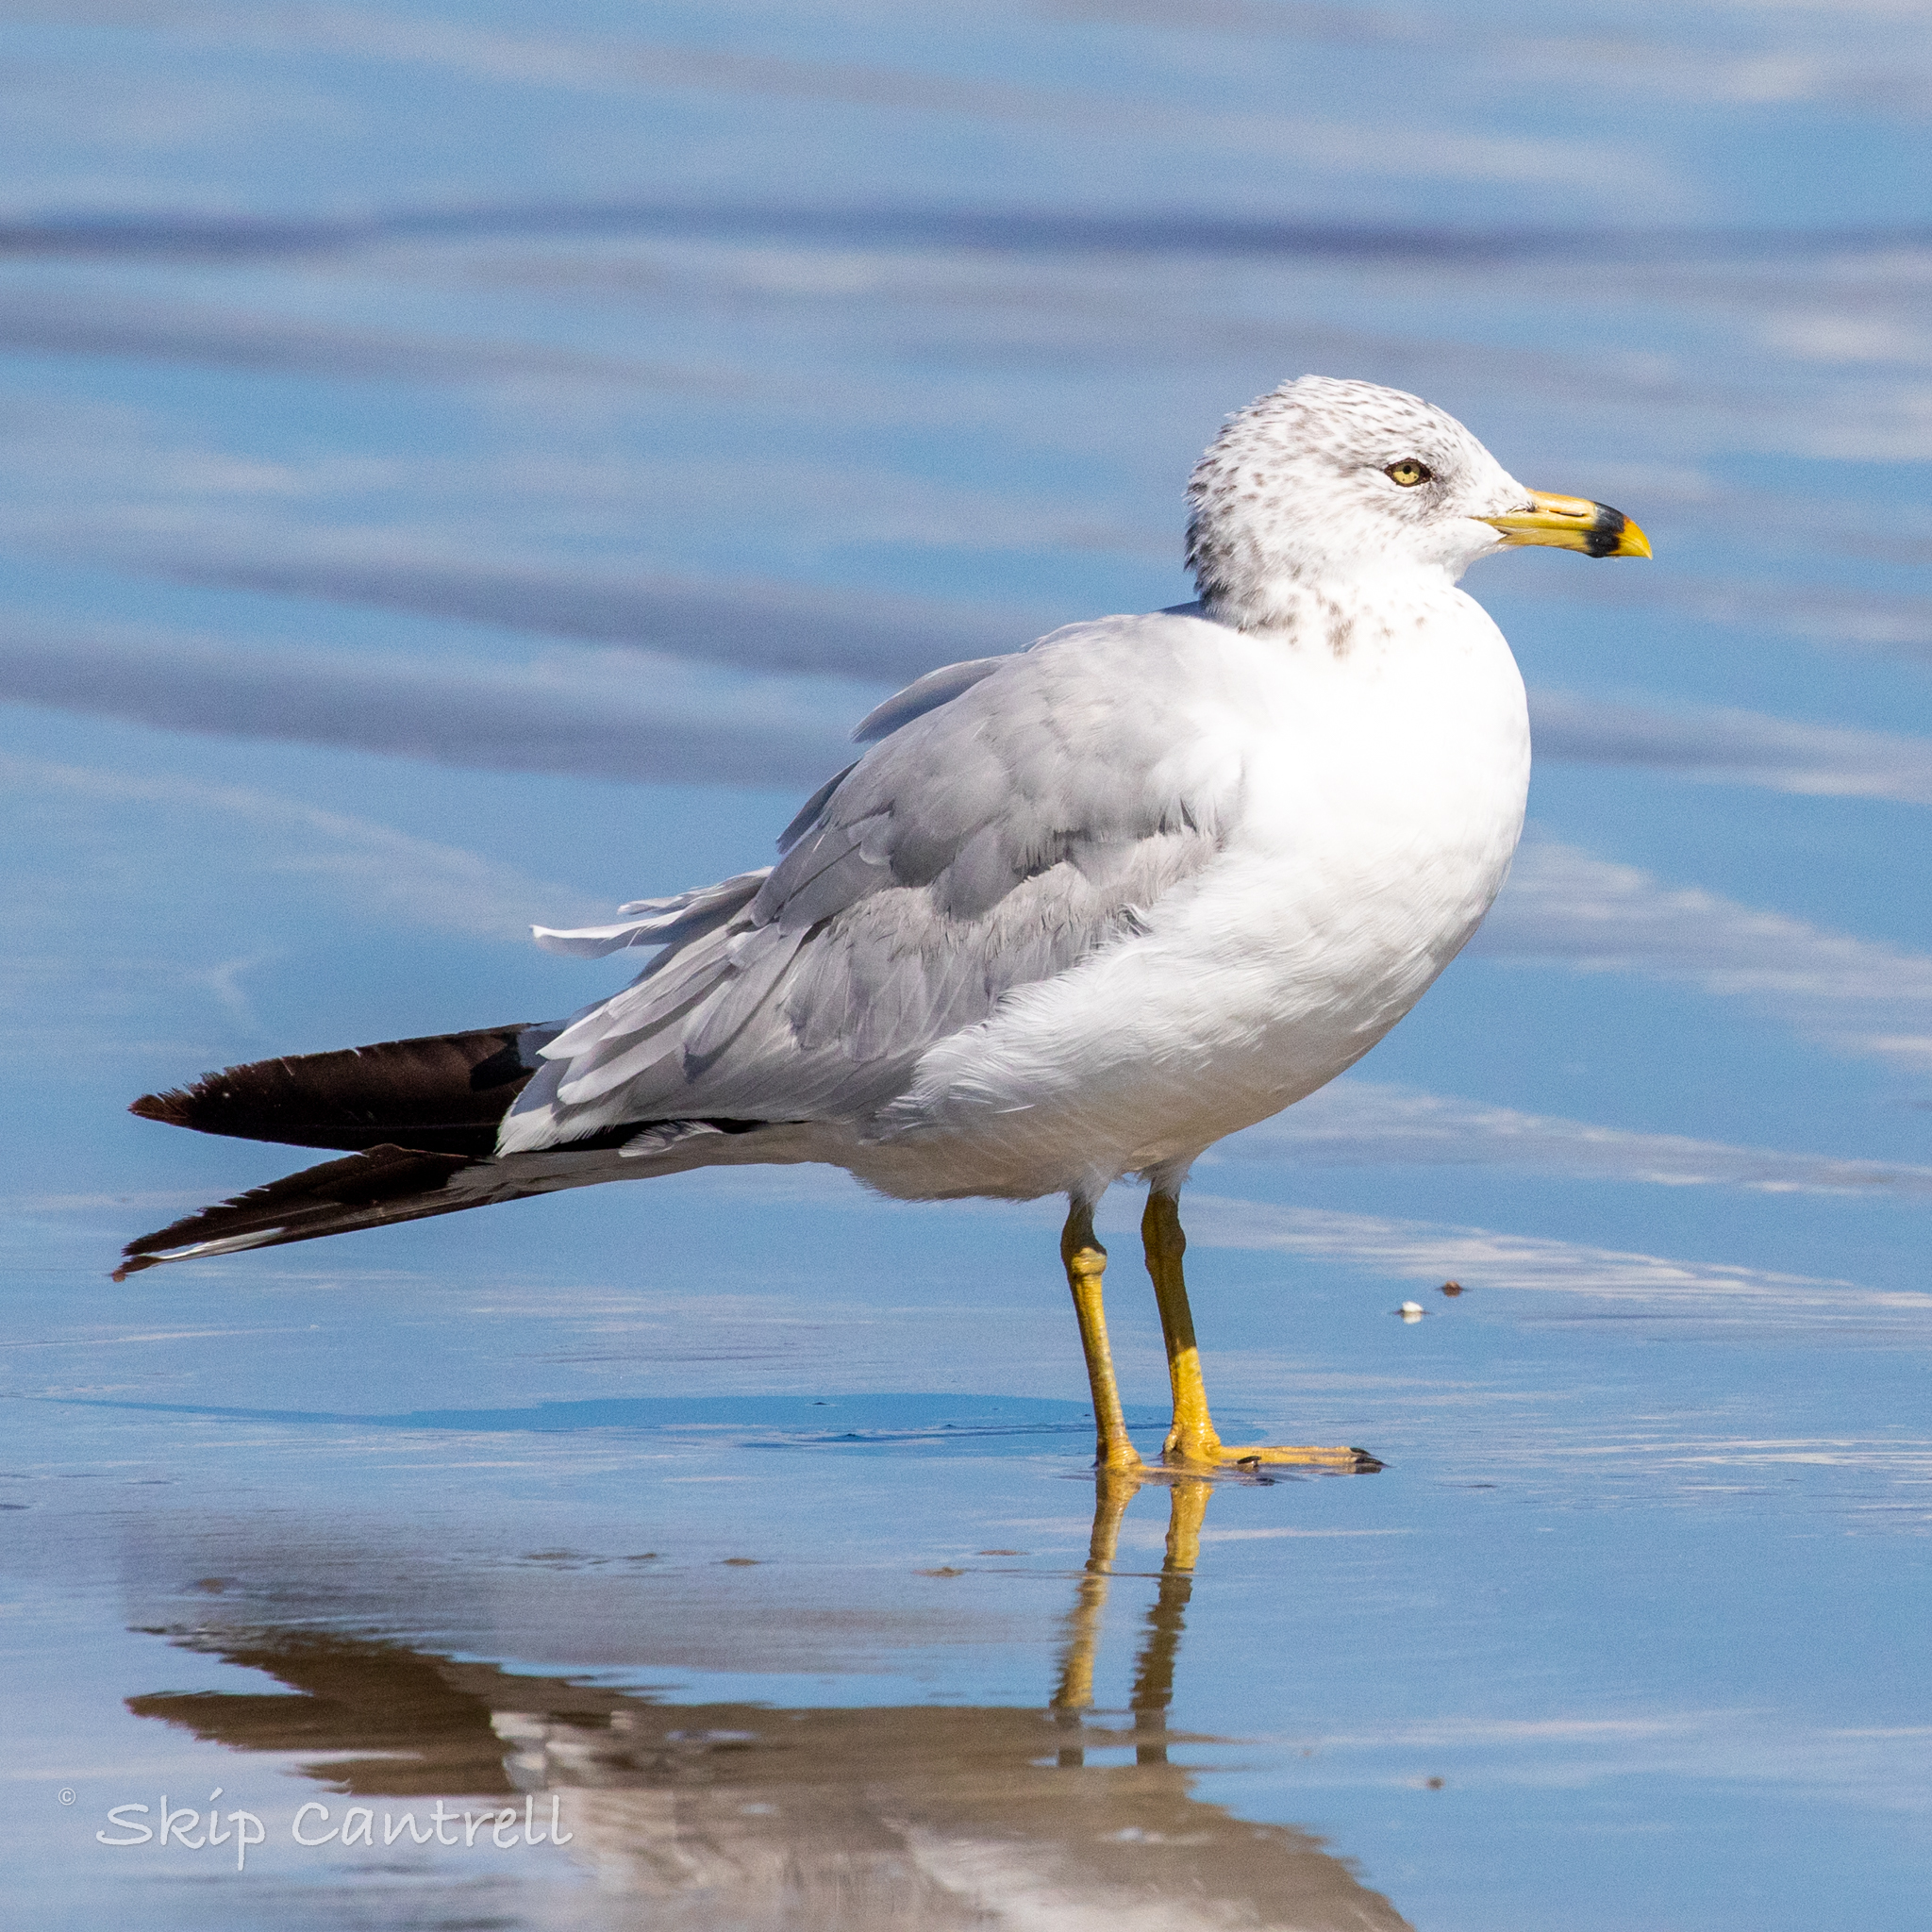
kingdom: Animalia
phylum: Chordata
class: Aves
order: Charadriiformes
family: Laridae
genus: Larus
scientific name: Larus delawarensis
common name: Ring-billed gull
